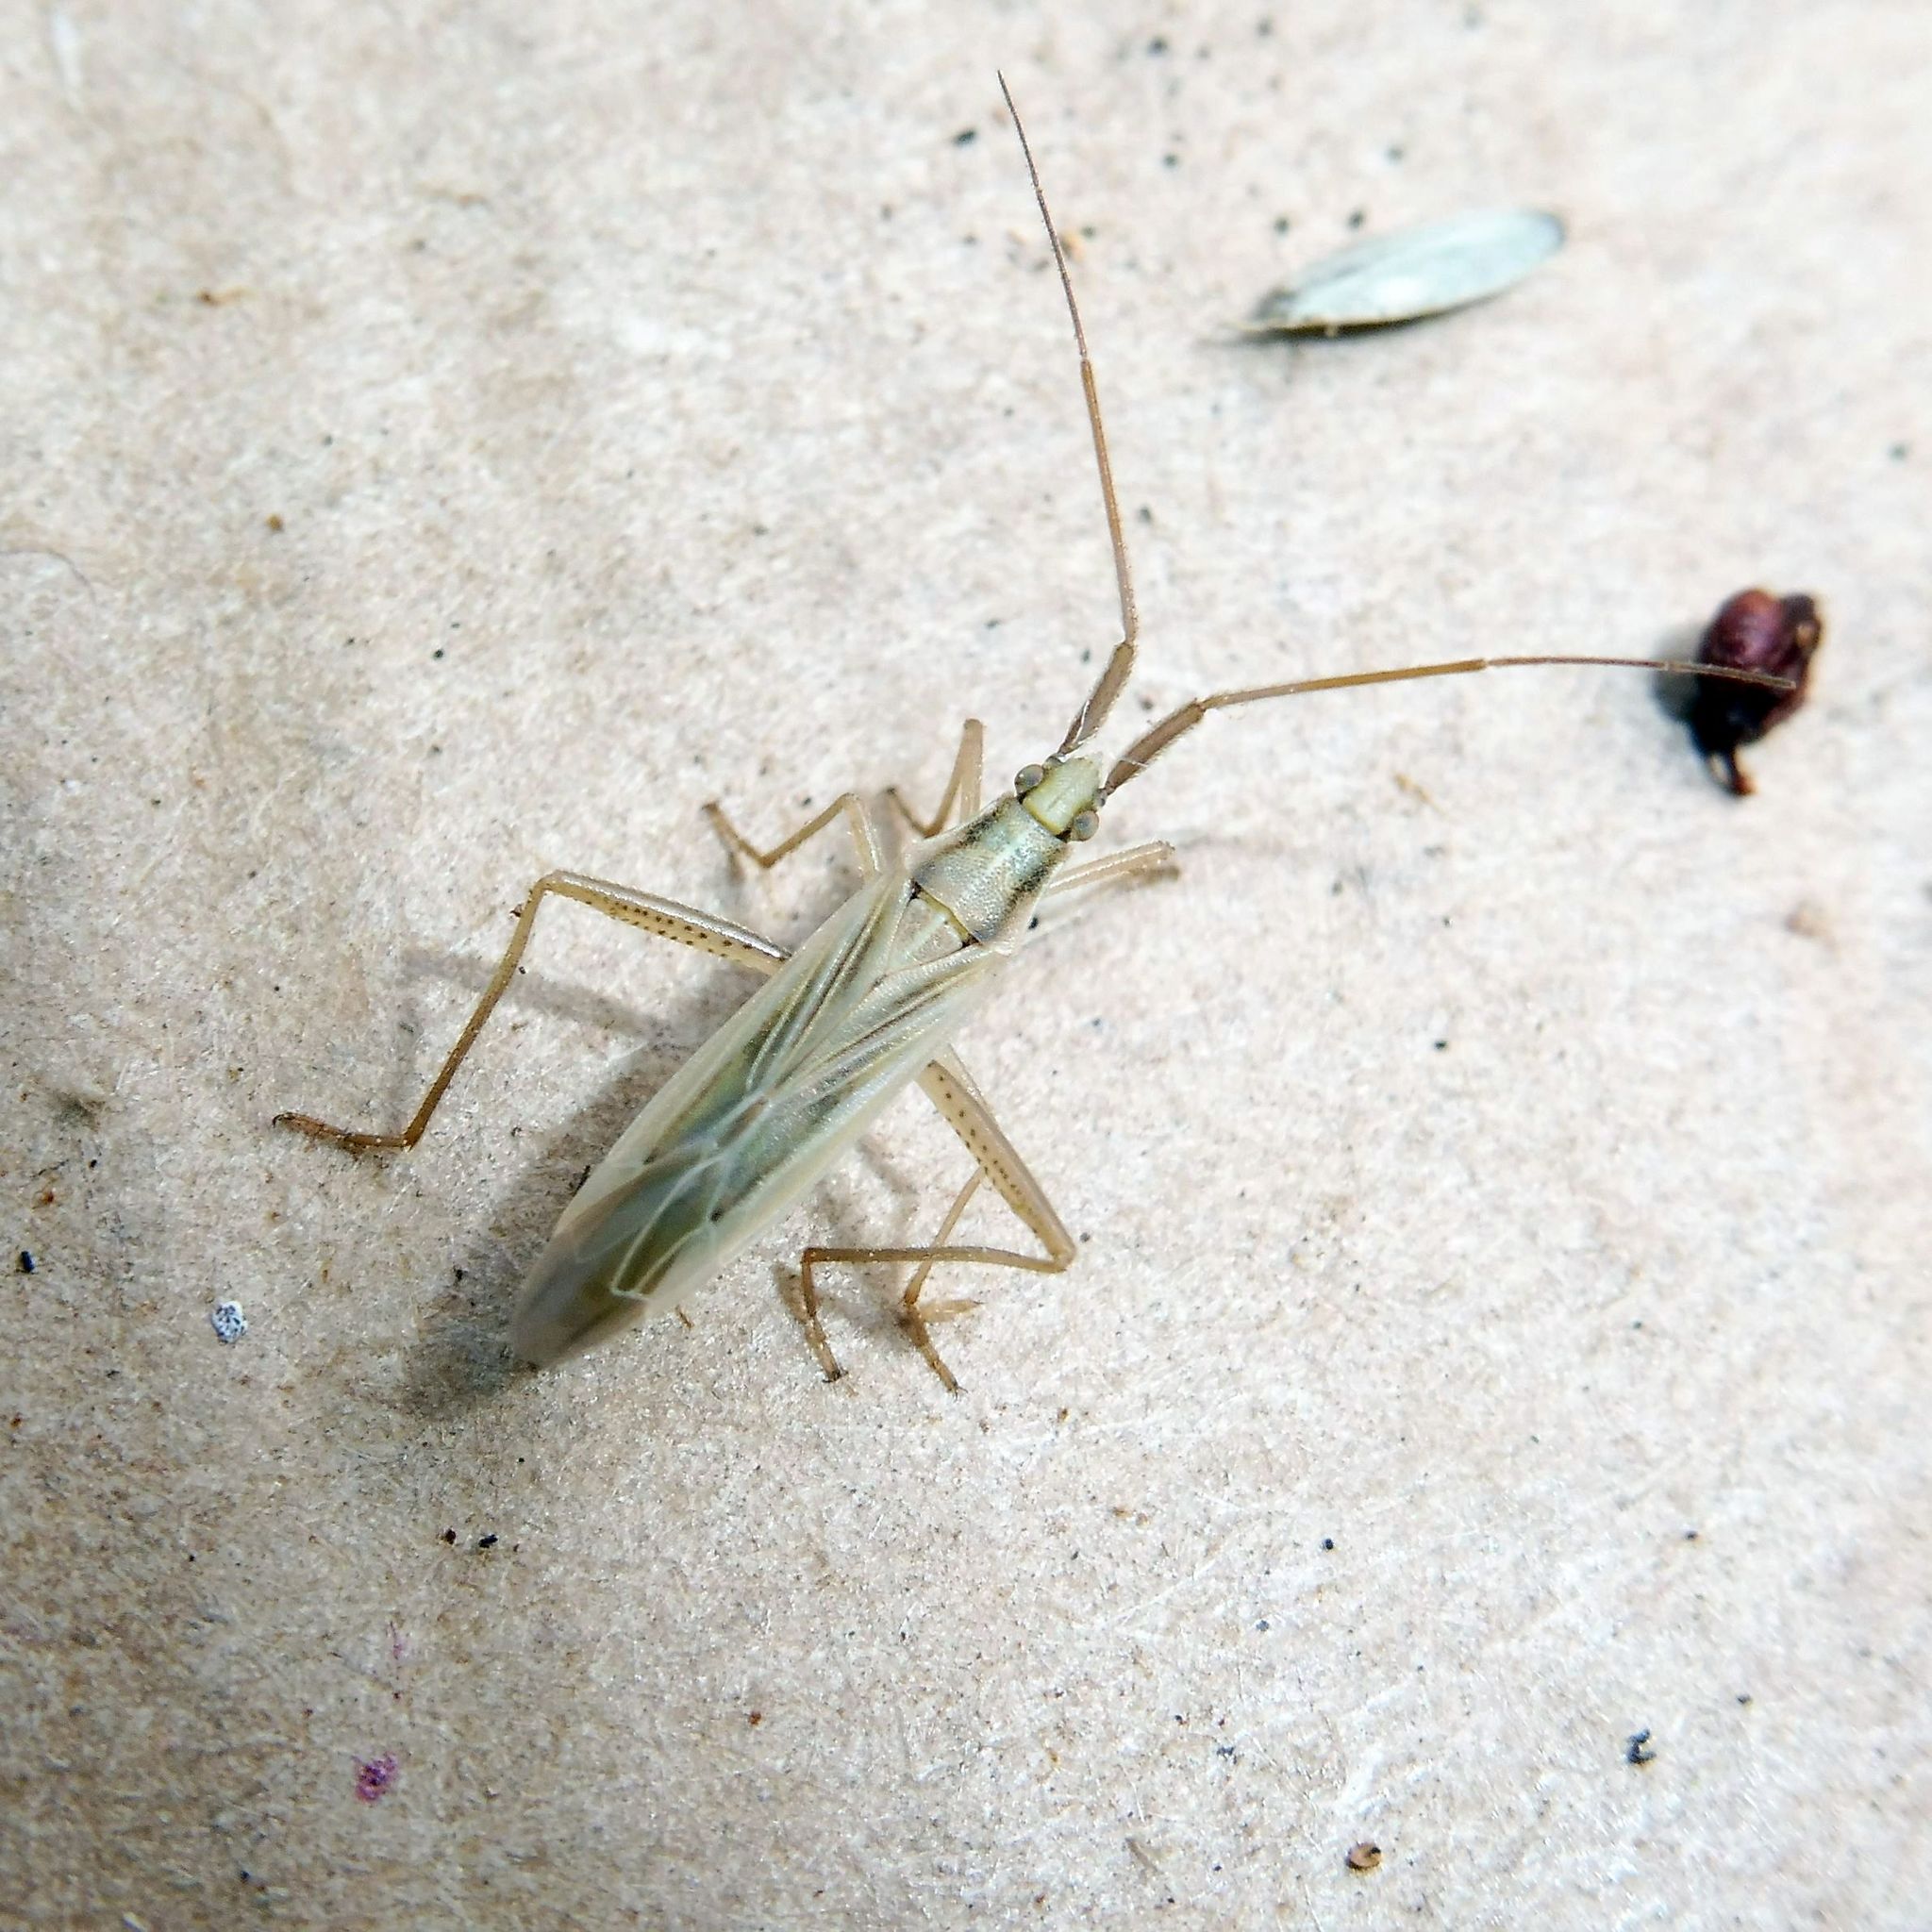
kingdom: Animalia
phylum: Arthropoda
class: Insecta
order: Hemiptera
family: Miridae
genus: Stenodema
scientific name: Stenodema laevigata
